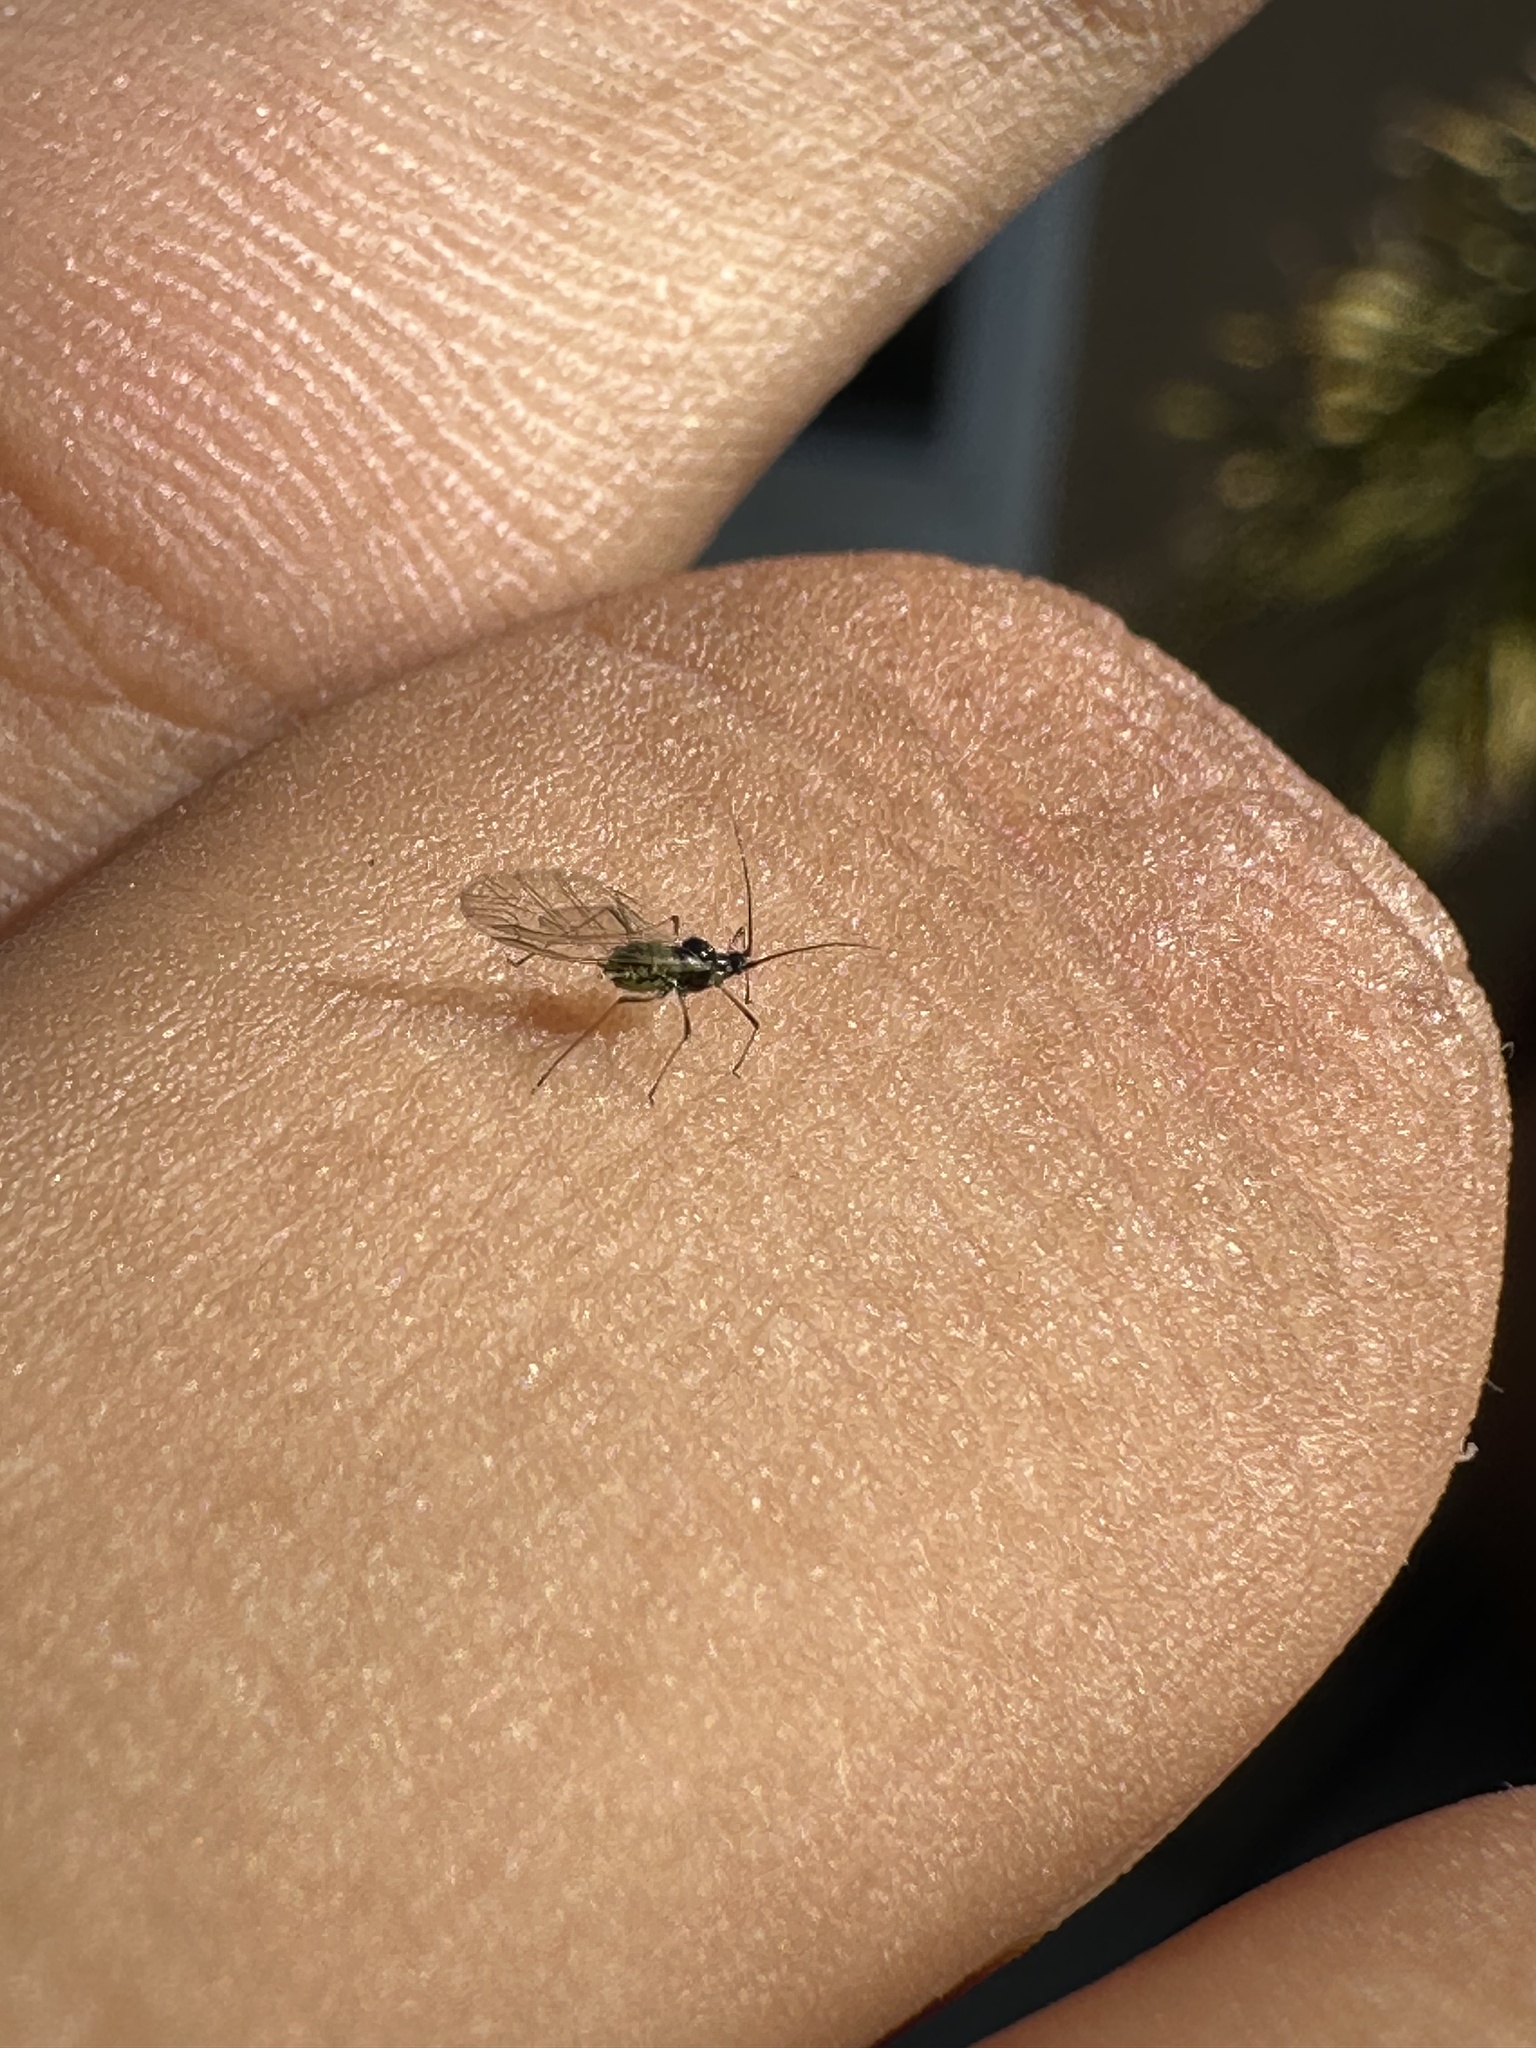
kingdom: Animalia
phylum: Arthropoda
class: Insecta
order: Hemiptera
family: Aphididae
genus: Hyperomyzus
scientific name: Hyperomyzus lactucae
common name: Sow thistle aphid
